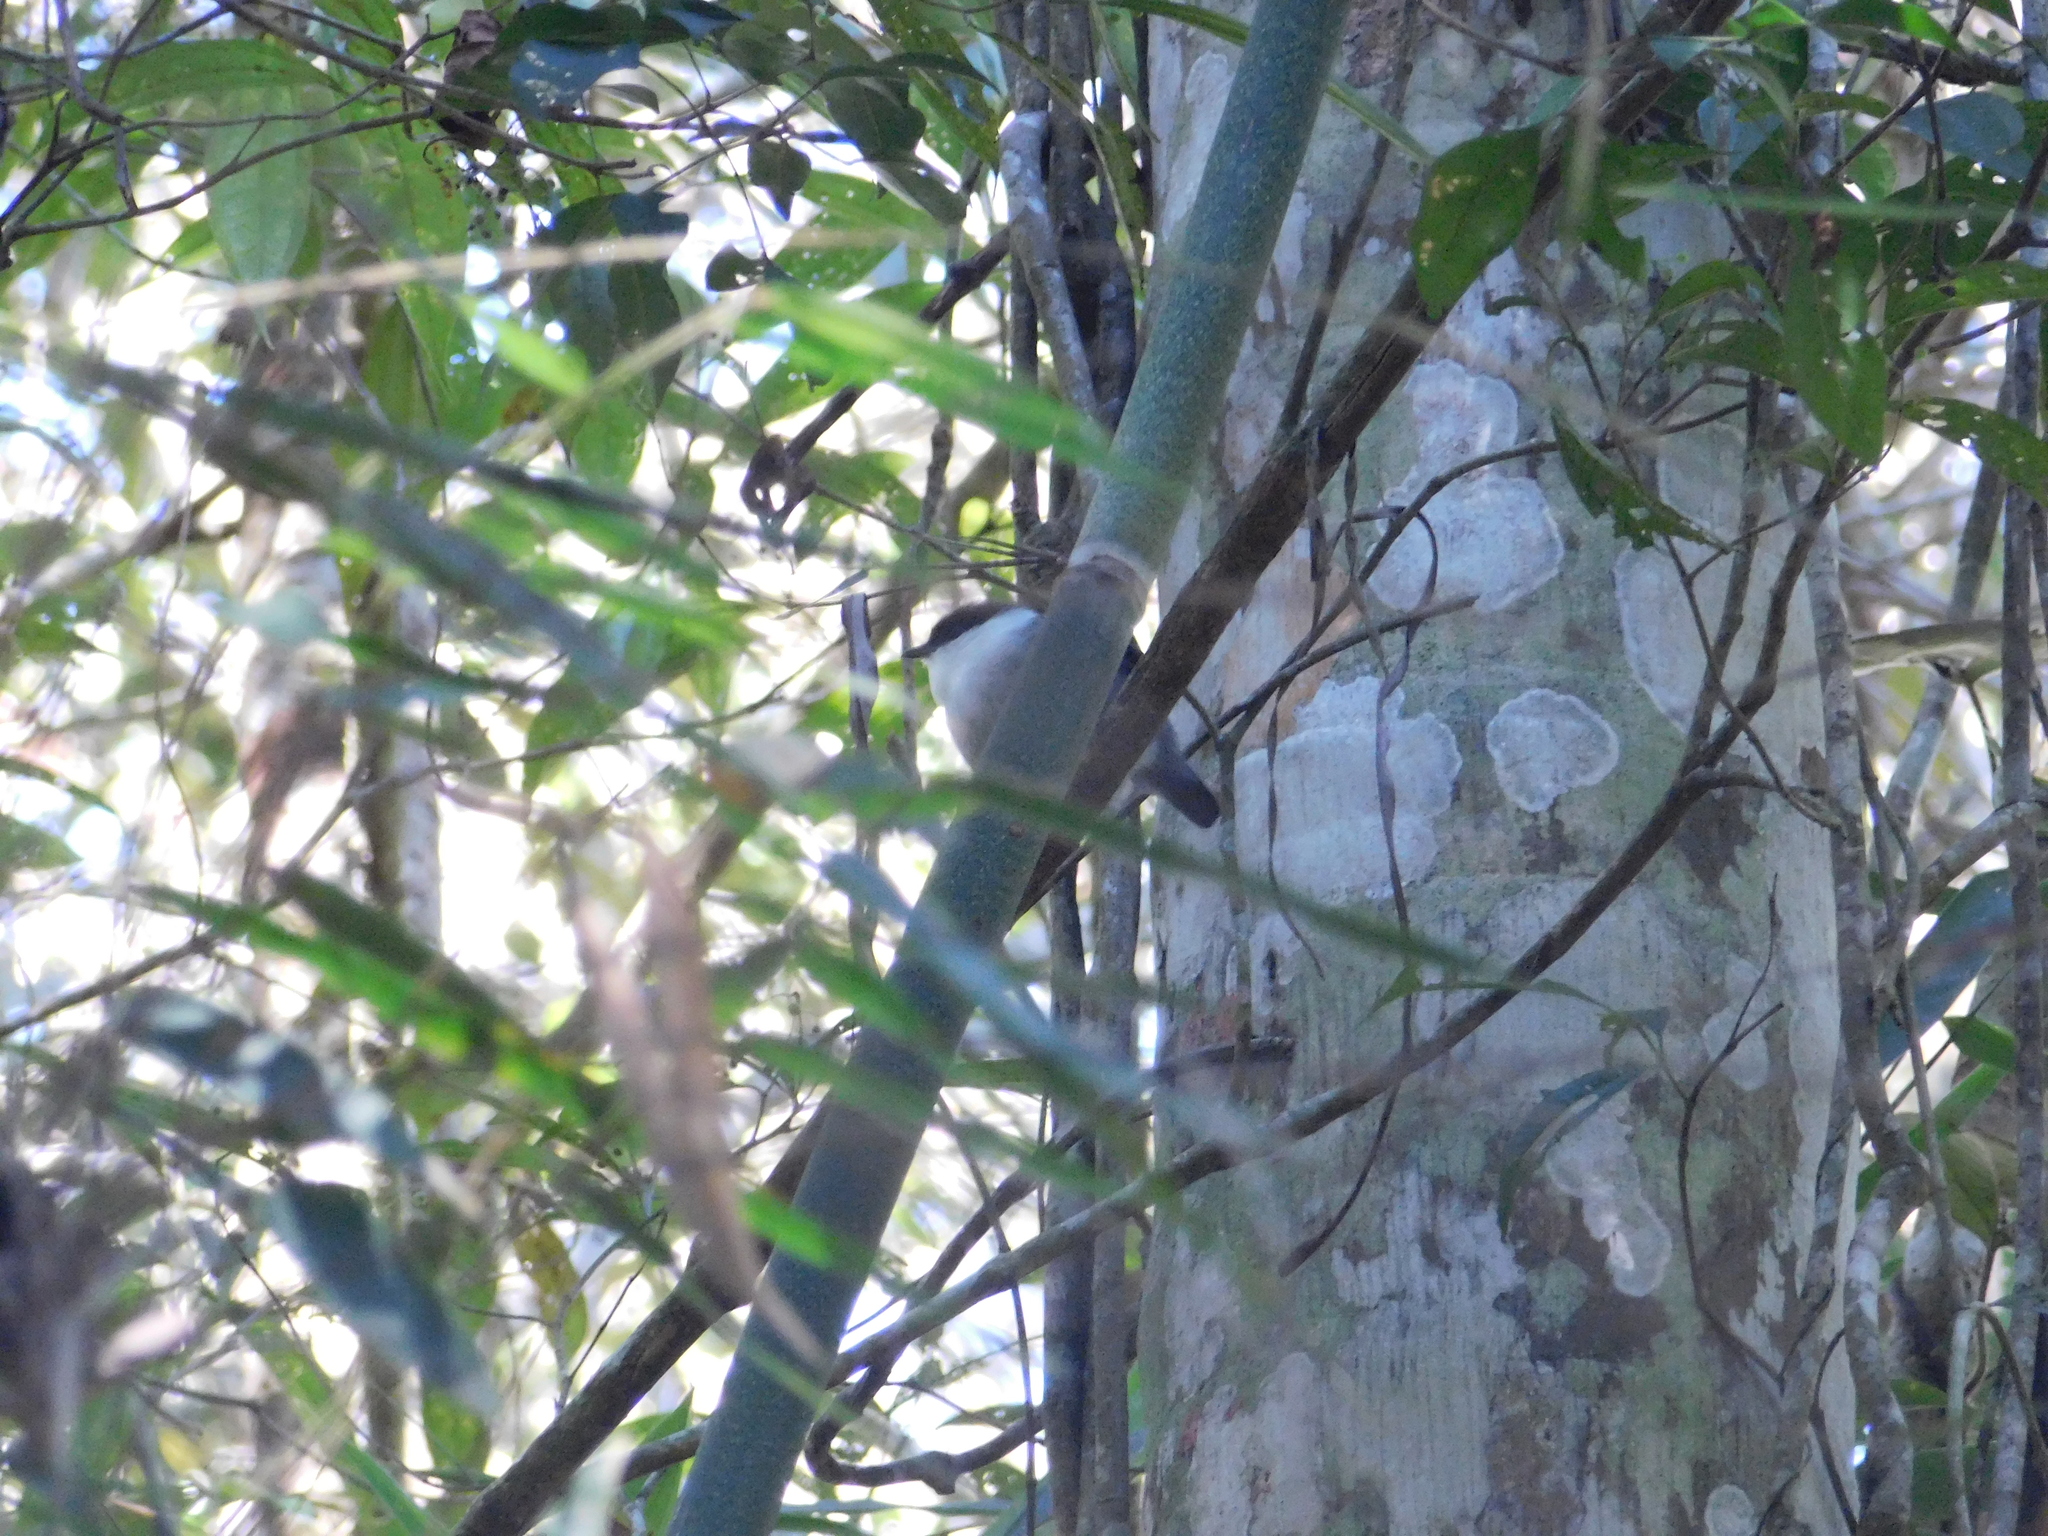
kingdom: Animalia
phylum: Chordata
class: Aves
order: Passeriformes
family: Pipridae
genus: Manacus
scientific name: Manacus manacus
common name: White-bearded manakin
